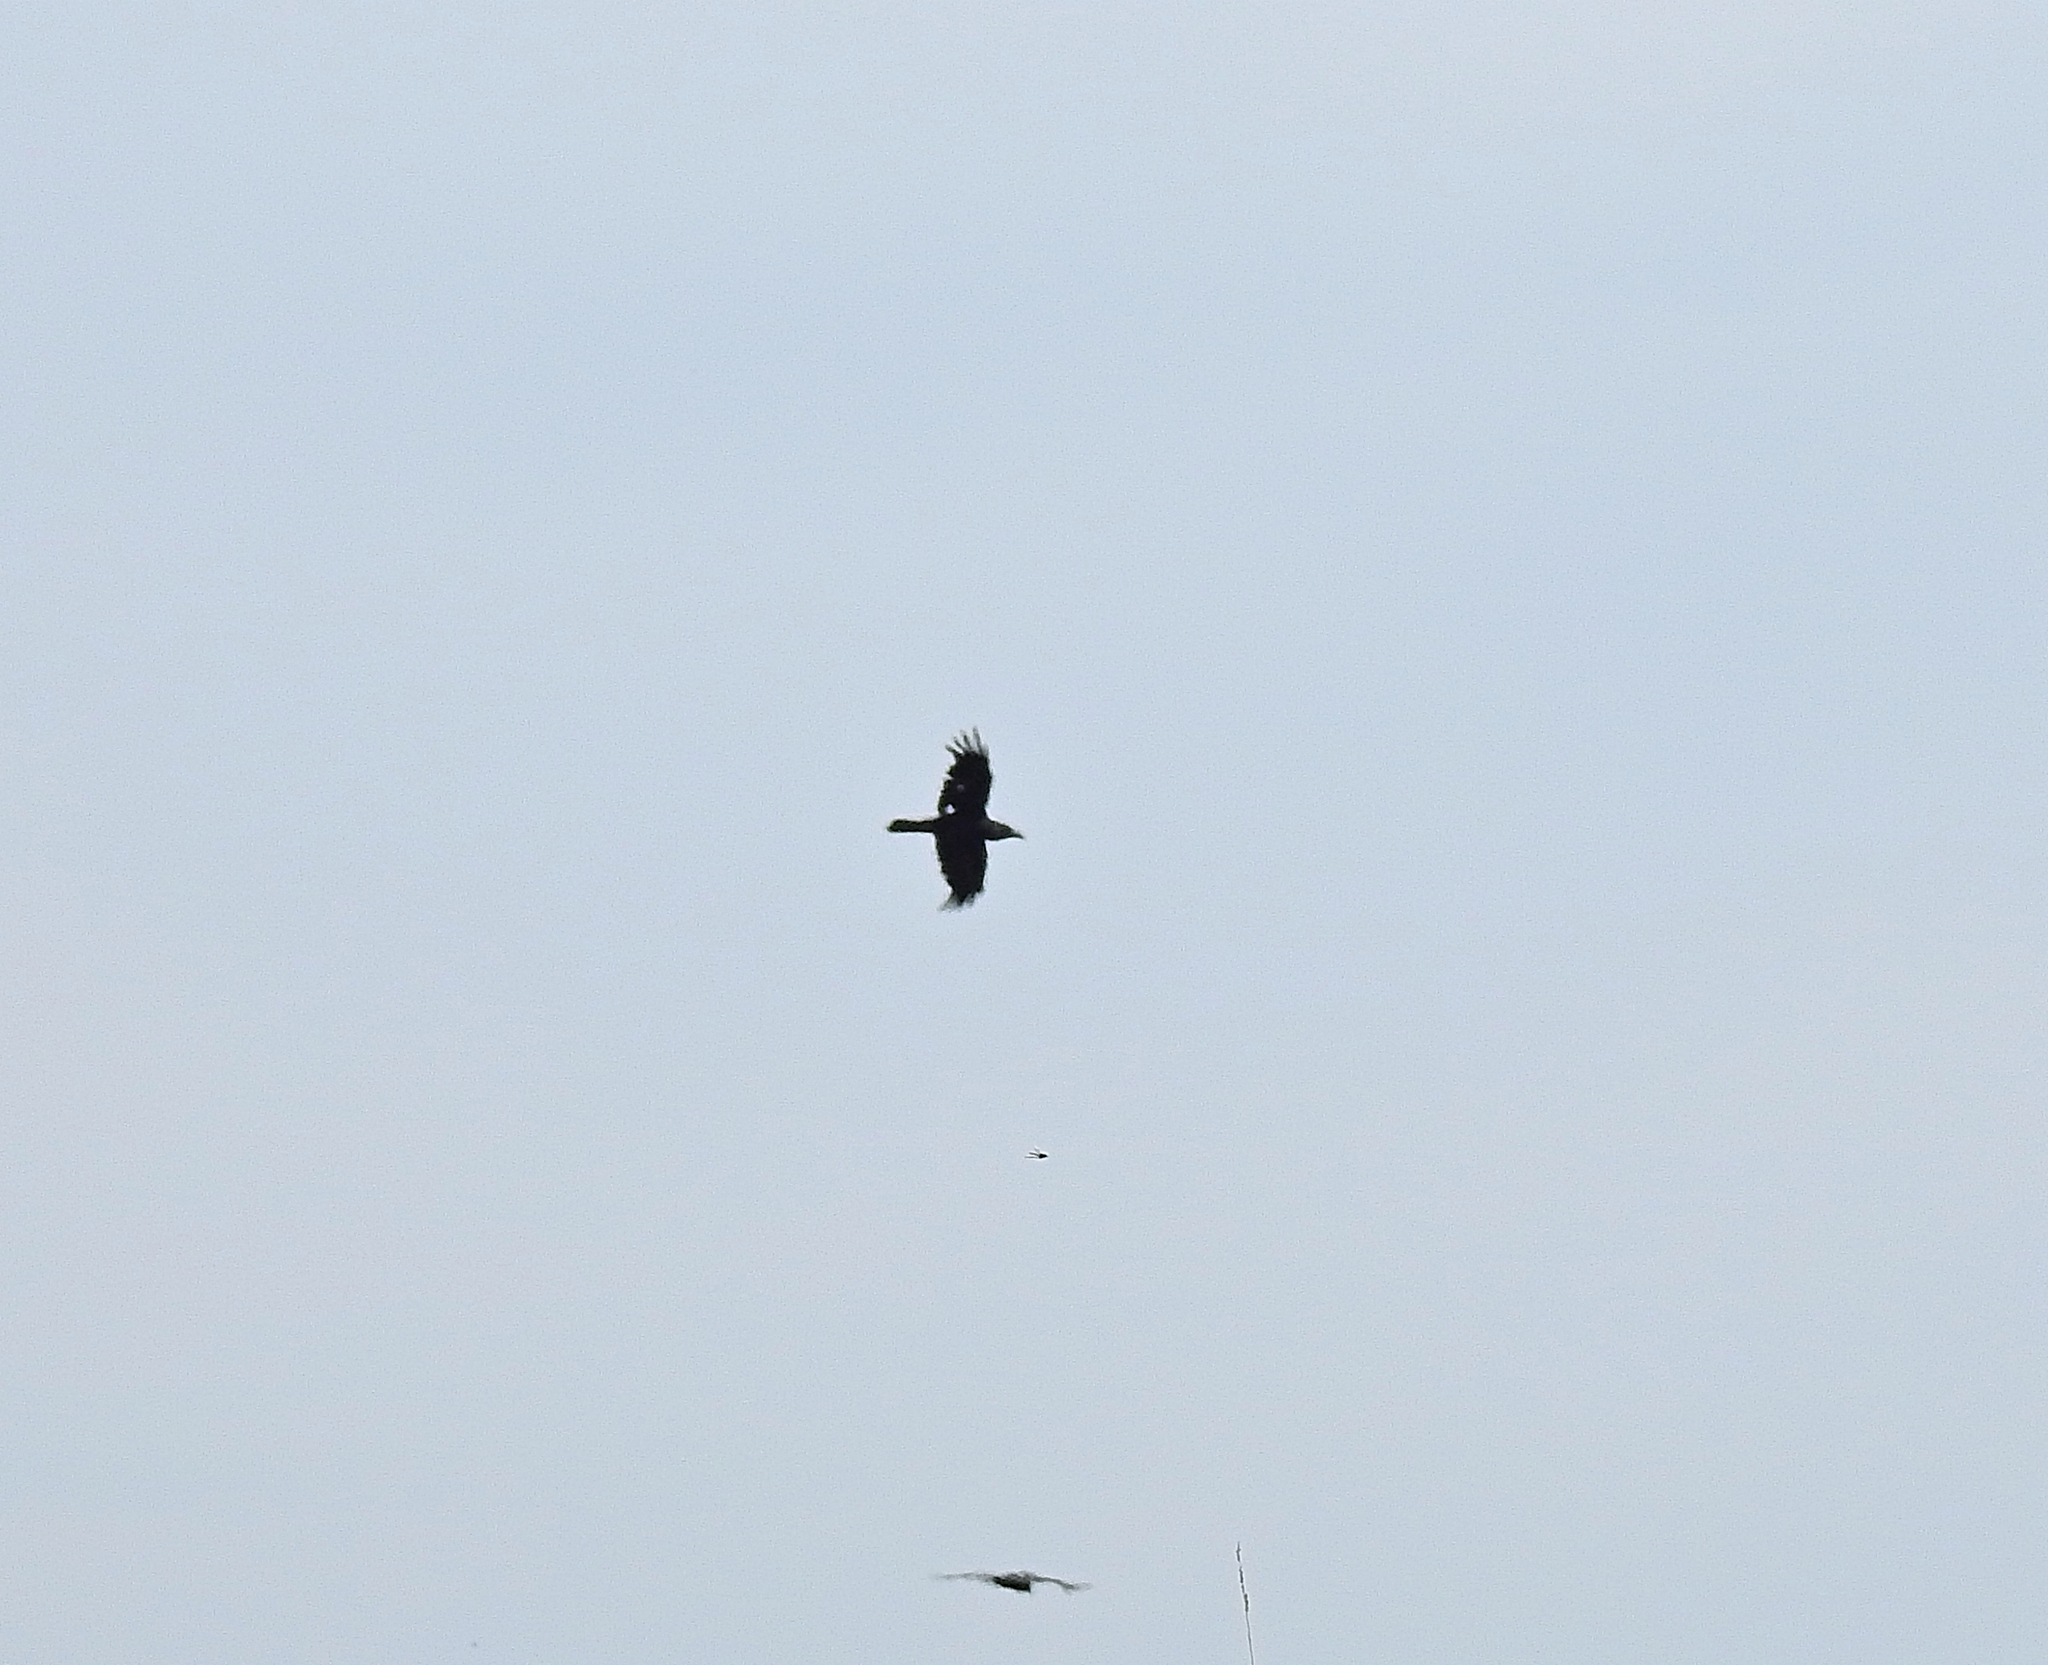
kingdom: Animalia
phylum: Chordata
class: Aves
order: Passeriformes
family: Corvidae
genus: Corvus
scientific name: Corvus corax
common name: Common raven
